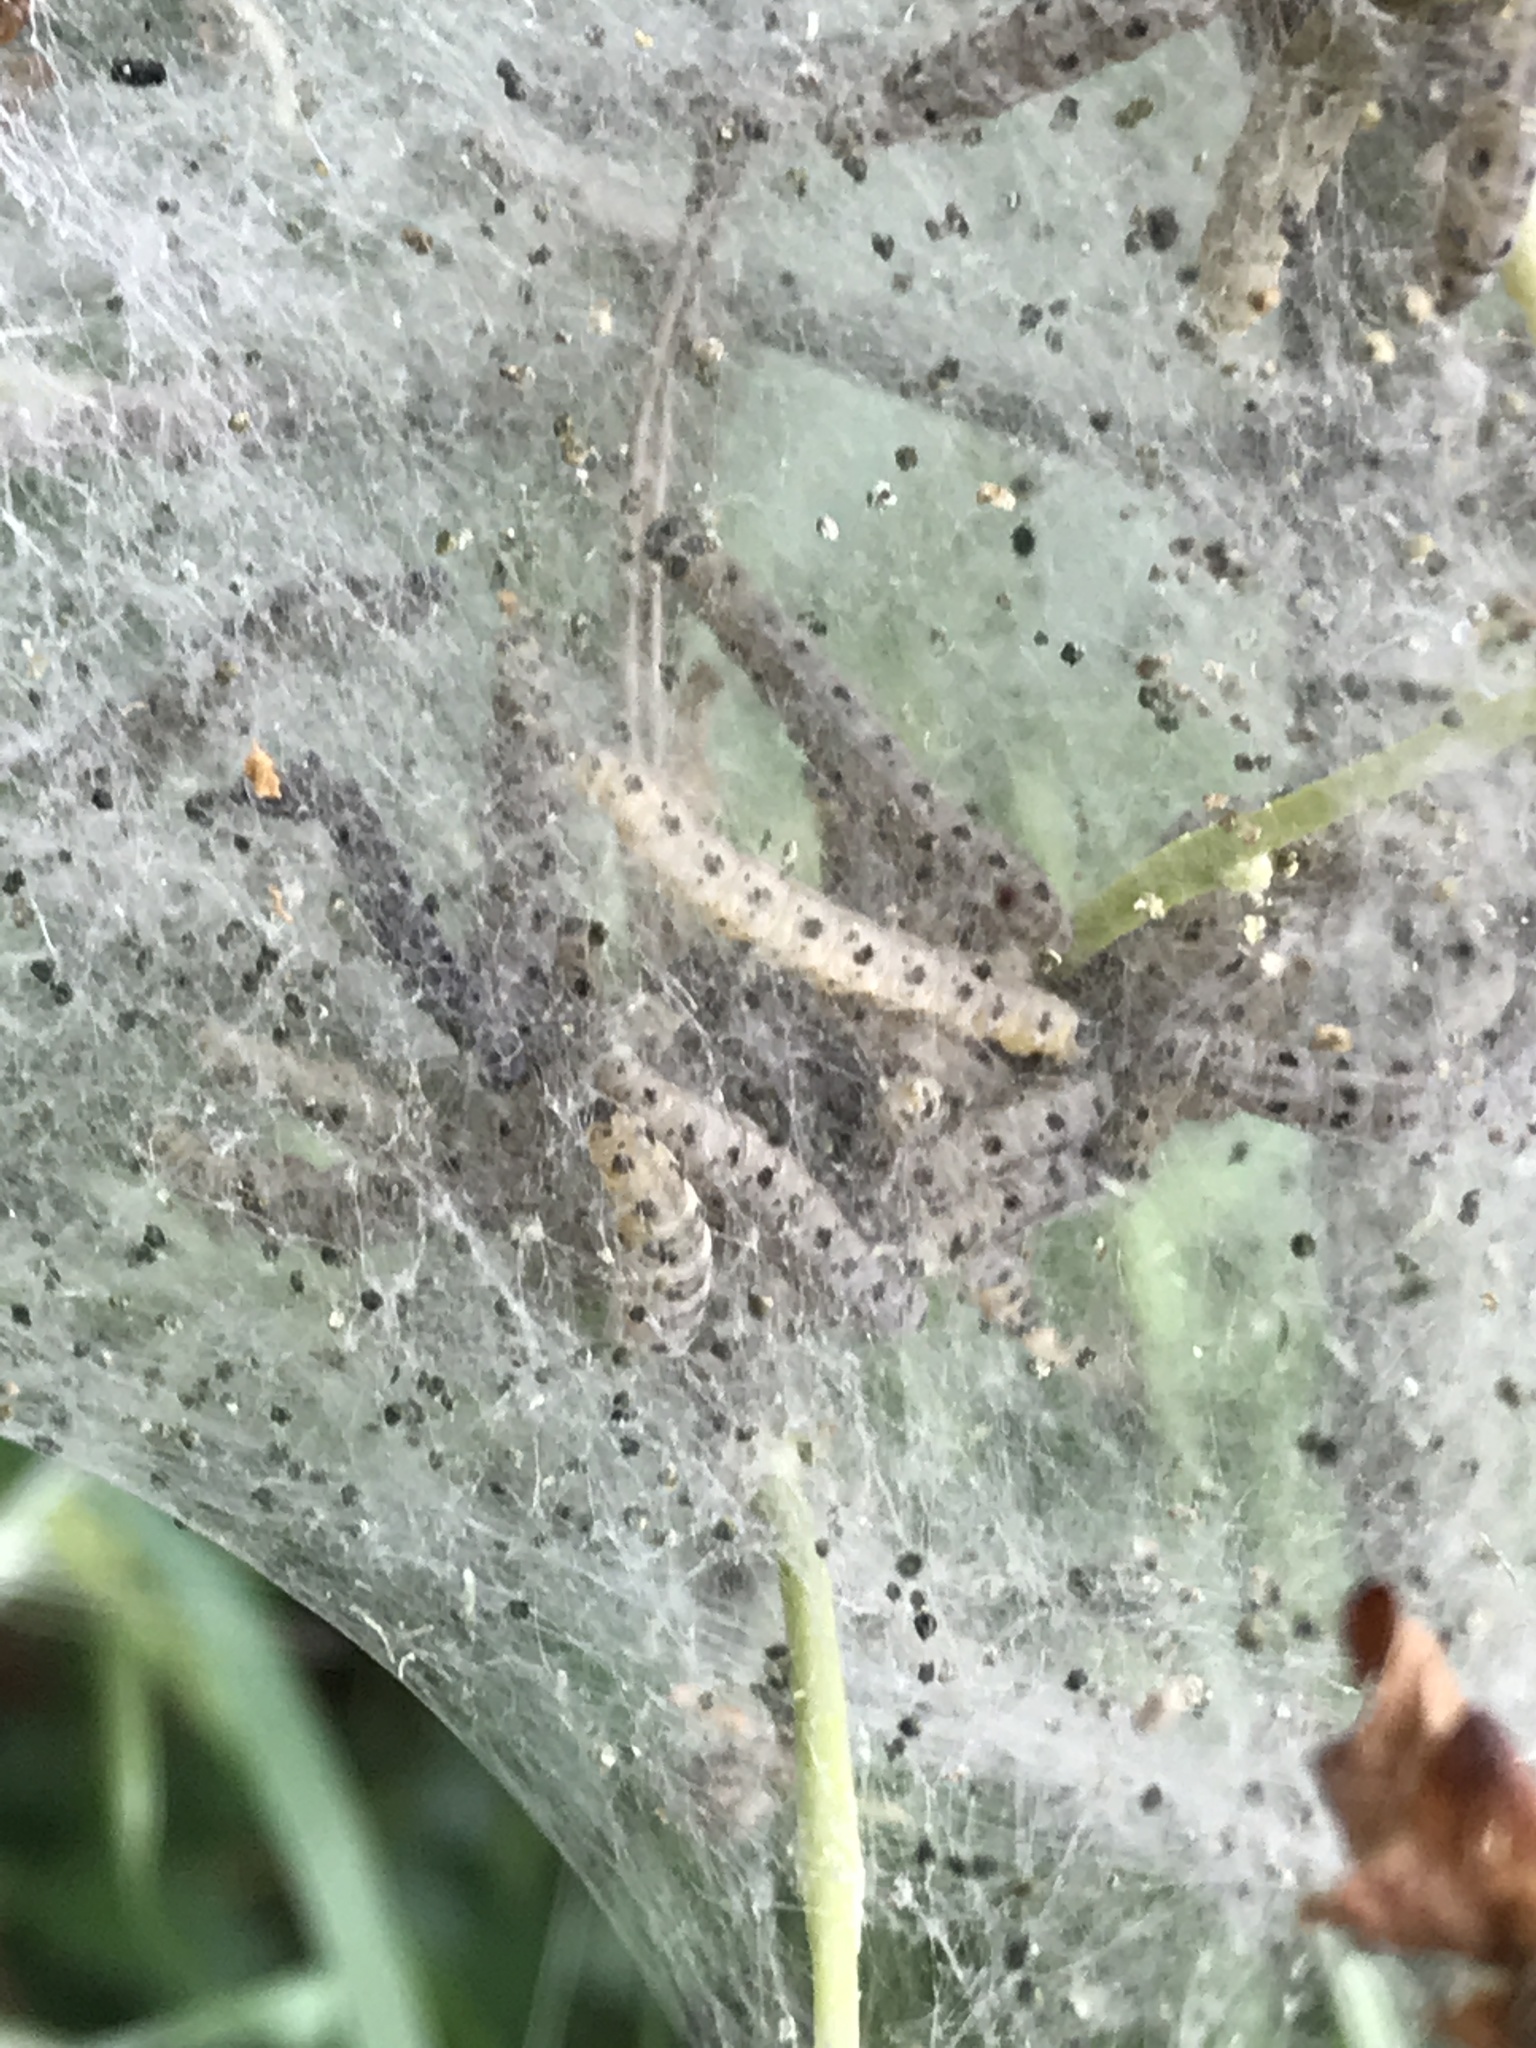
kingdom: Animalia
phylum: Arthropoda
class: Insecta
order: Lepidoptera
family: Yponomeutidae
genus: Yponomeuta
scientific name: Yponomeuta cagnagellus
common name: Spindle ermine
